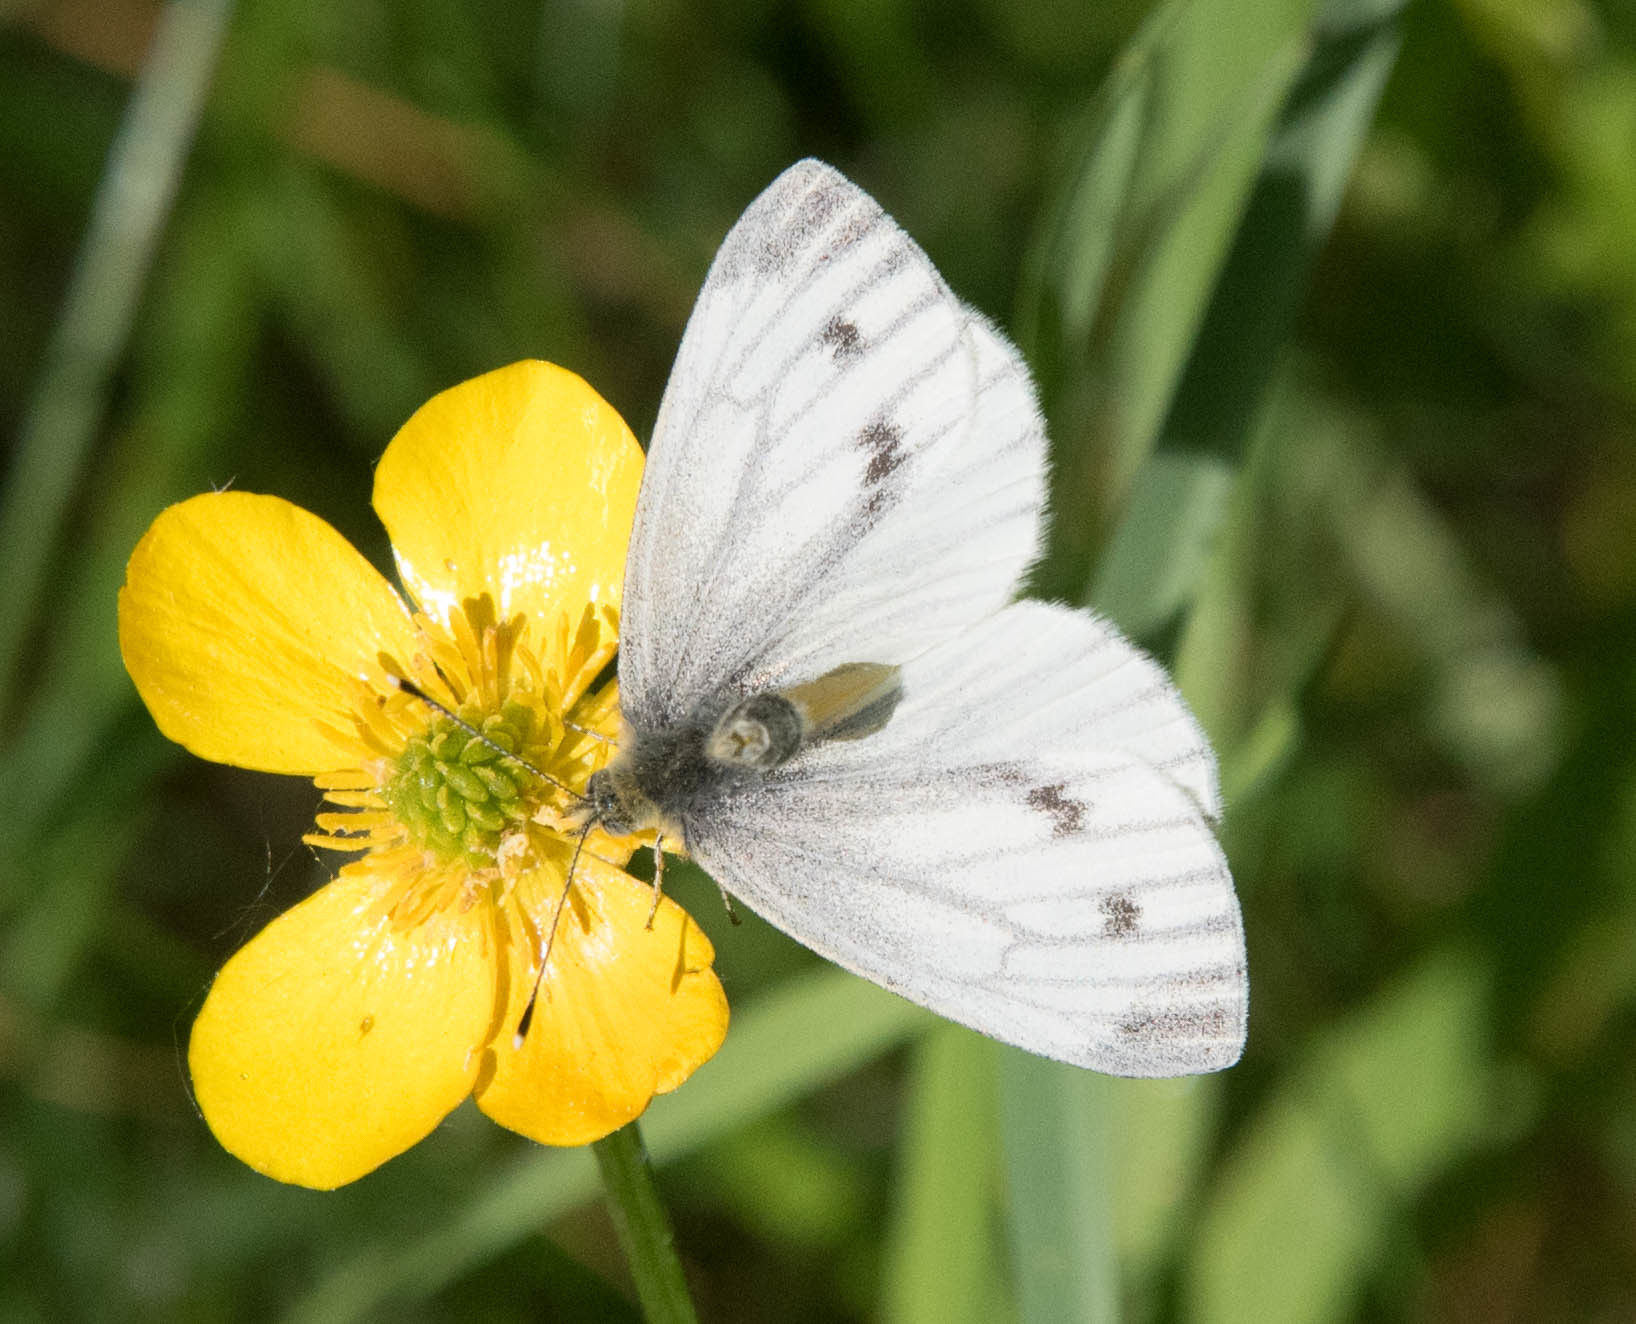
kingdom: Animalia
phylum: Arthropoda
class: Insecta
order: Lepidoptera
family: Pieridae
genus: Pieris
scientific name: Pieris napi
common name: Green-veined white
